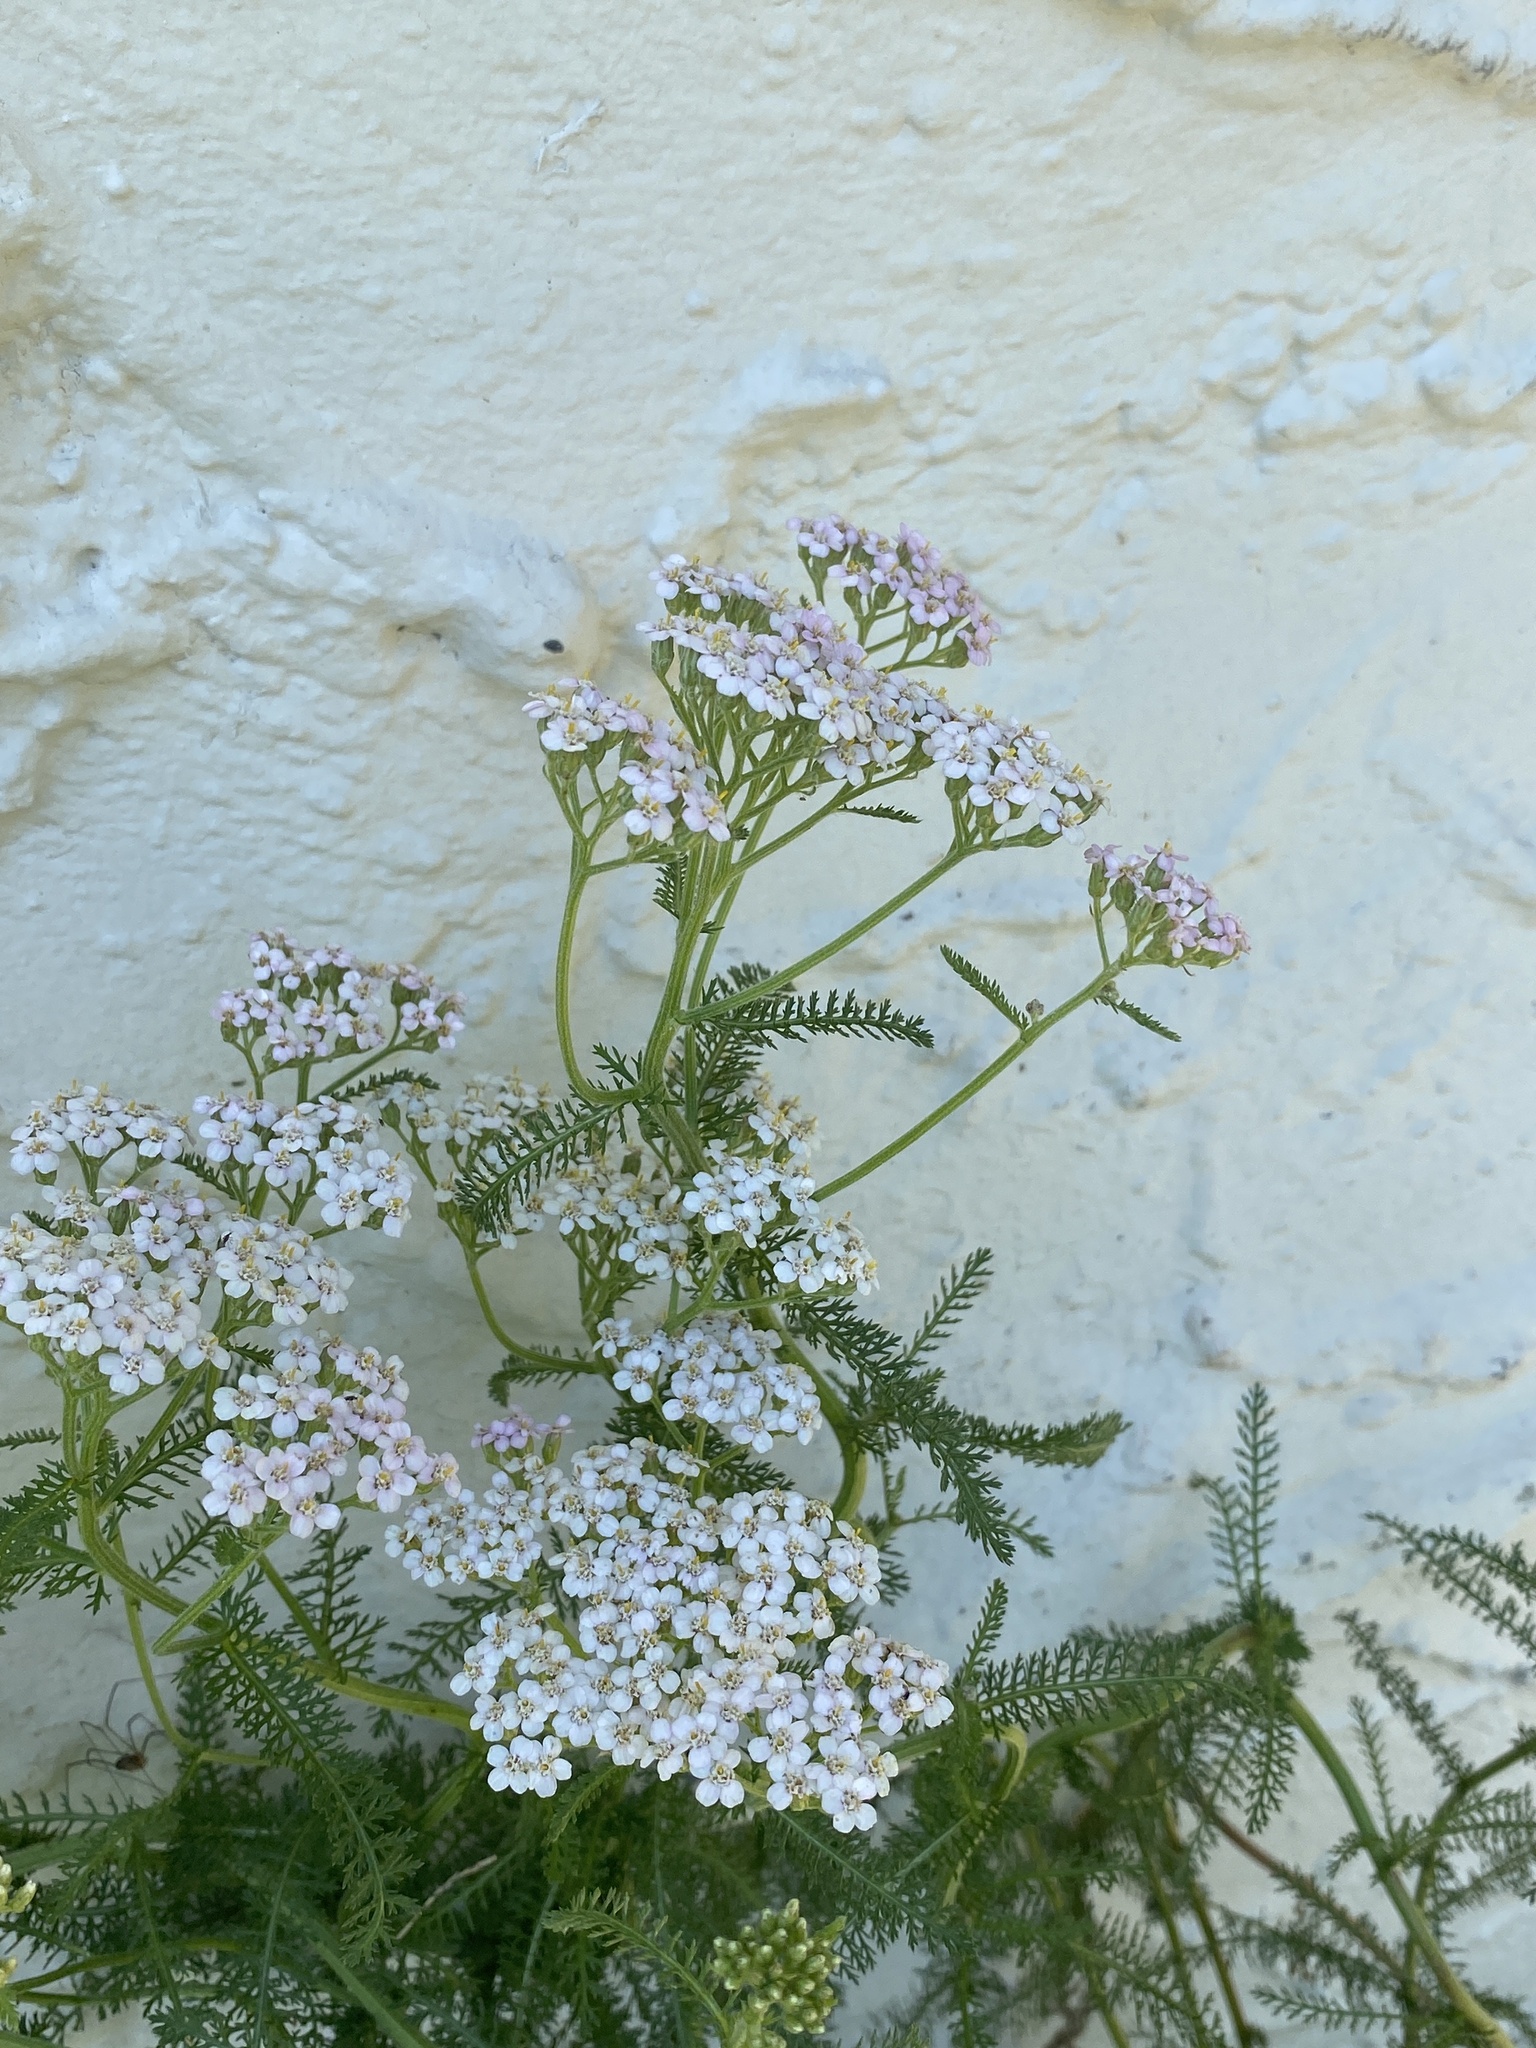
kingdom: Plantae
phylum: Tracheophyta
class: Magnoliopsida
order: Asterales
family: Asteraceae
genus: Achillea
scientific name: Achillea millefolium
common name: Yarrow
